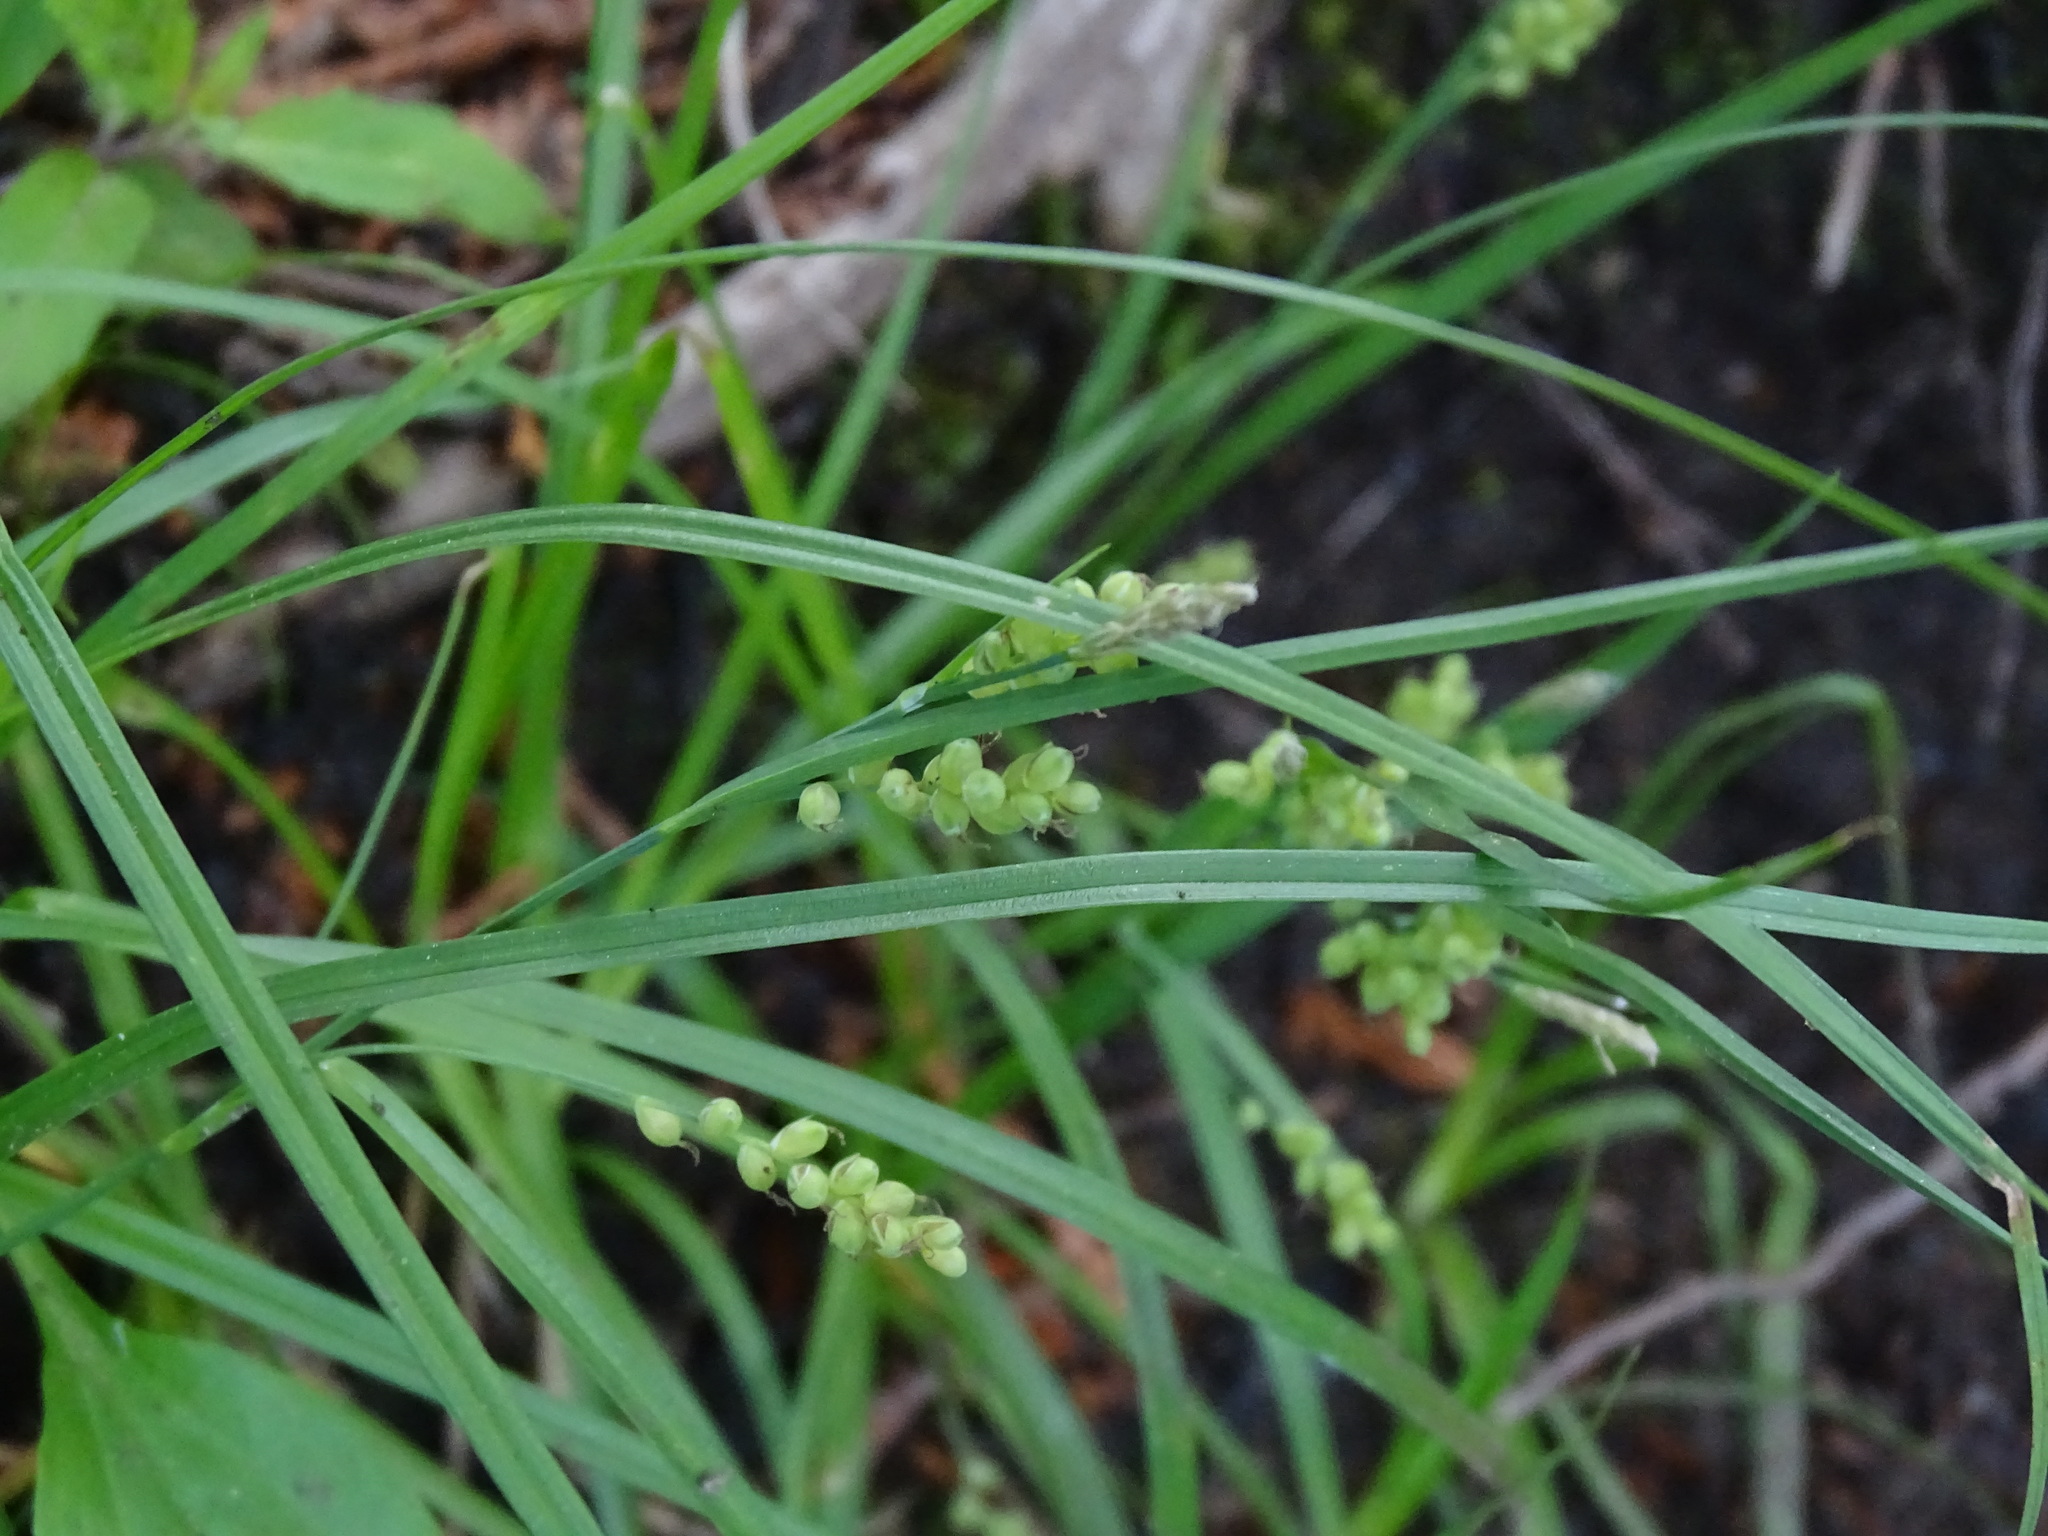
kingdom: Plantae
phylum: Tracheophyta
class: Liliopsida
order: Poales
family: Cyperaceae
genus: Carex
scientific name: Carex aurea
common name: Golden sedge
